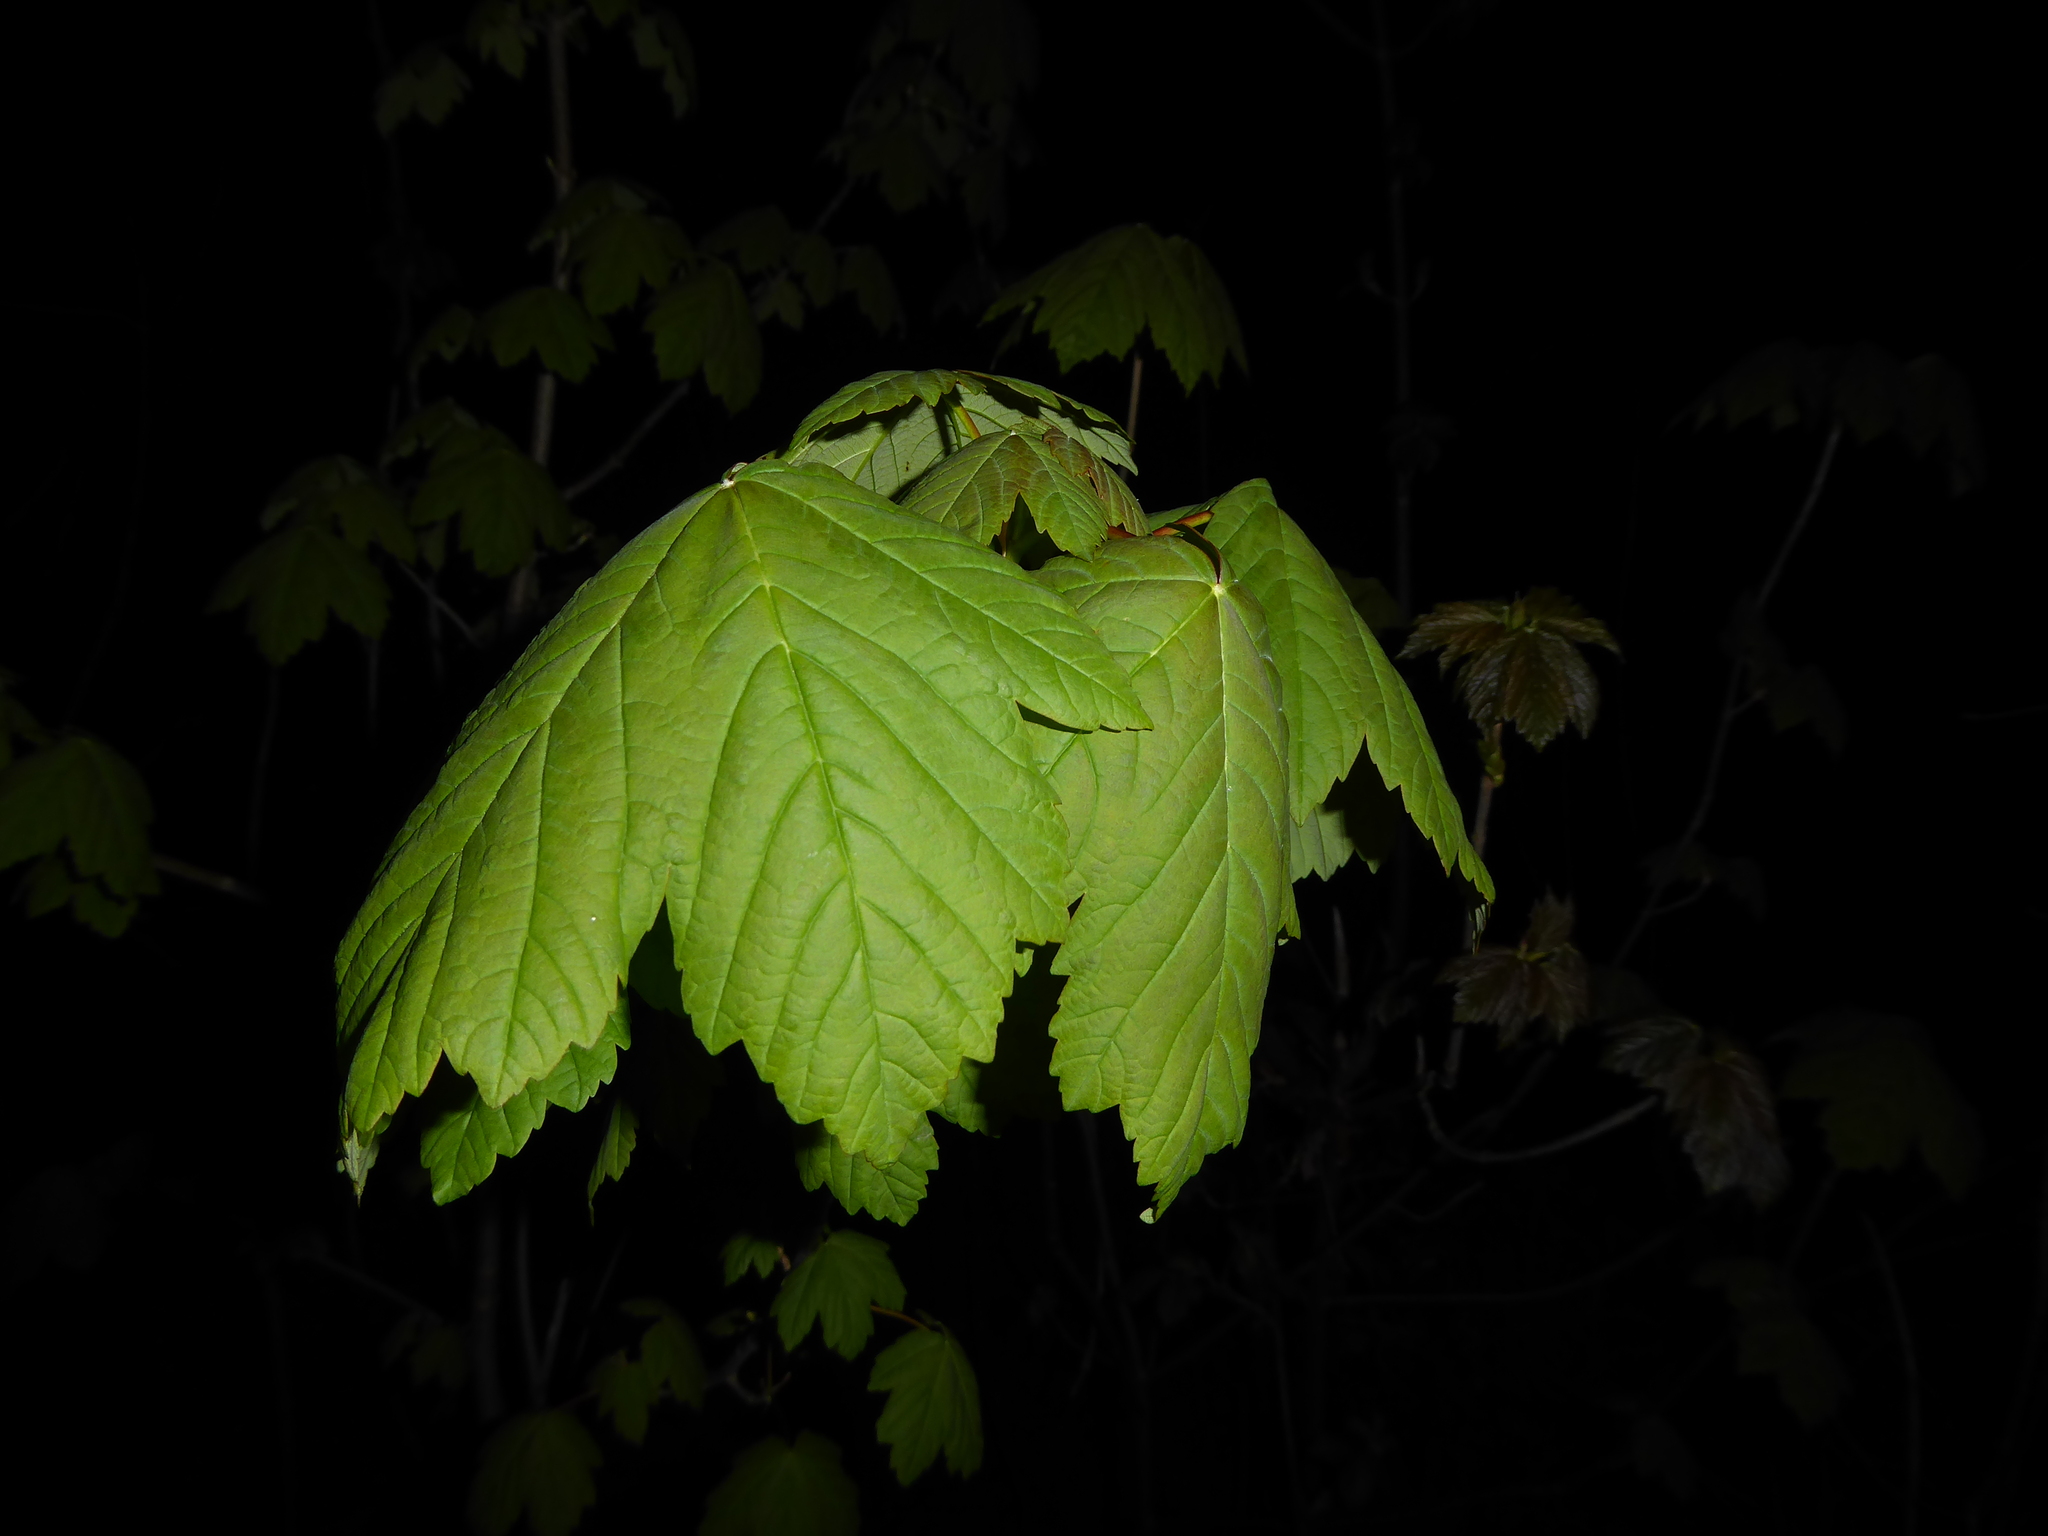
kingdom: Plantae
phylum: Tracheophyta
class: Magnoliopsida
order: Sapindales
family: Sapindaceae
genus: Acer
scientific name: Acer pseudoplatanus
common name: Sycamore
